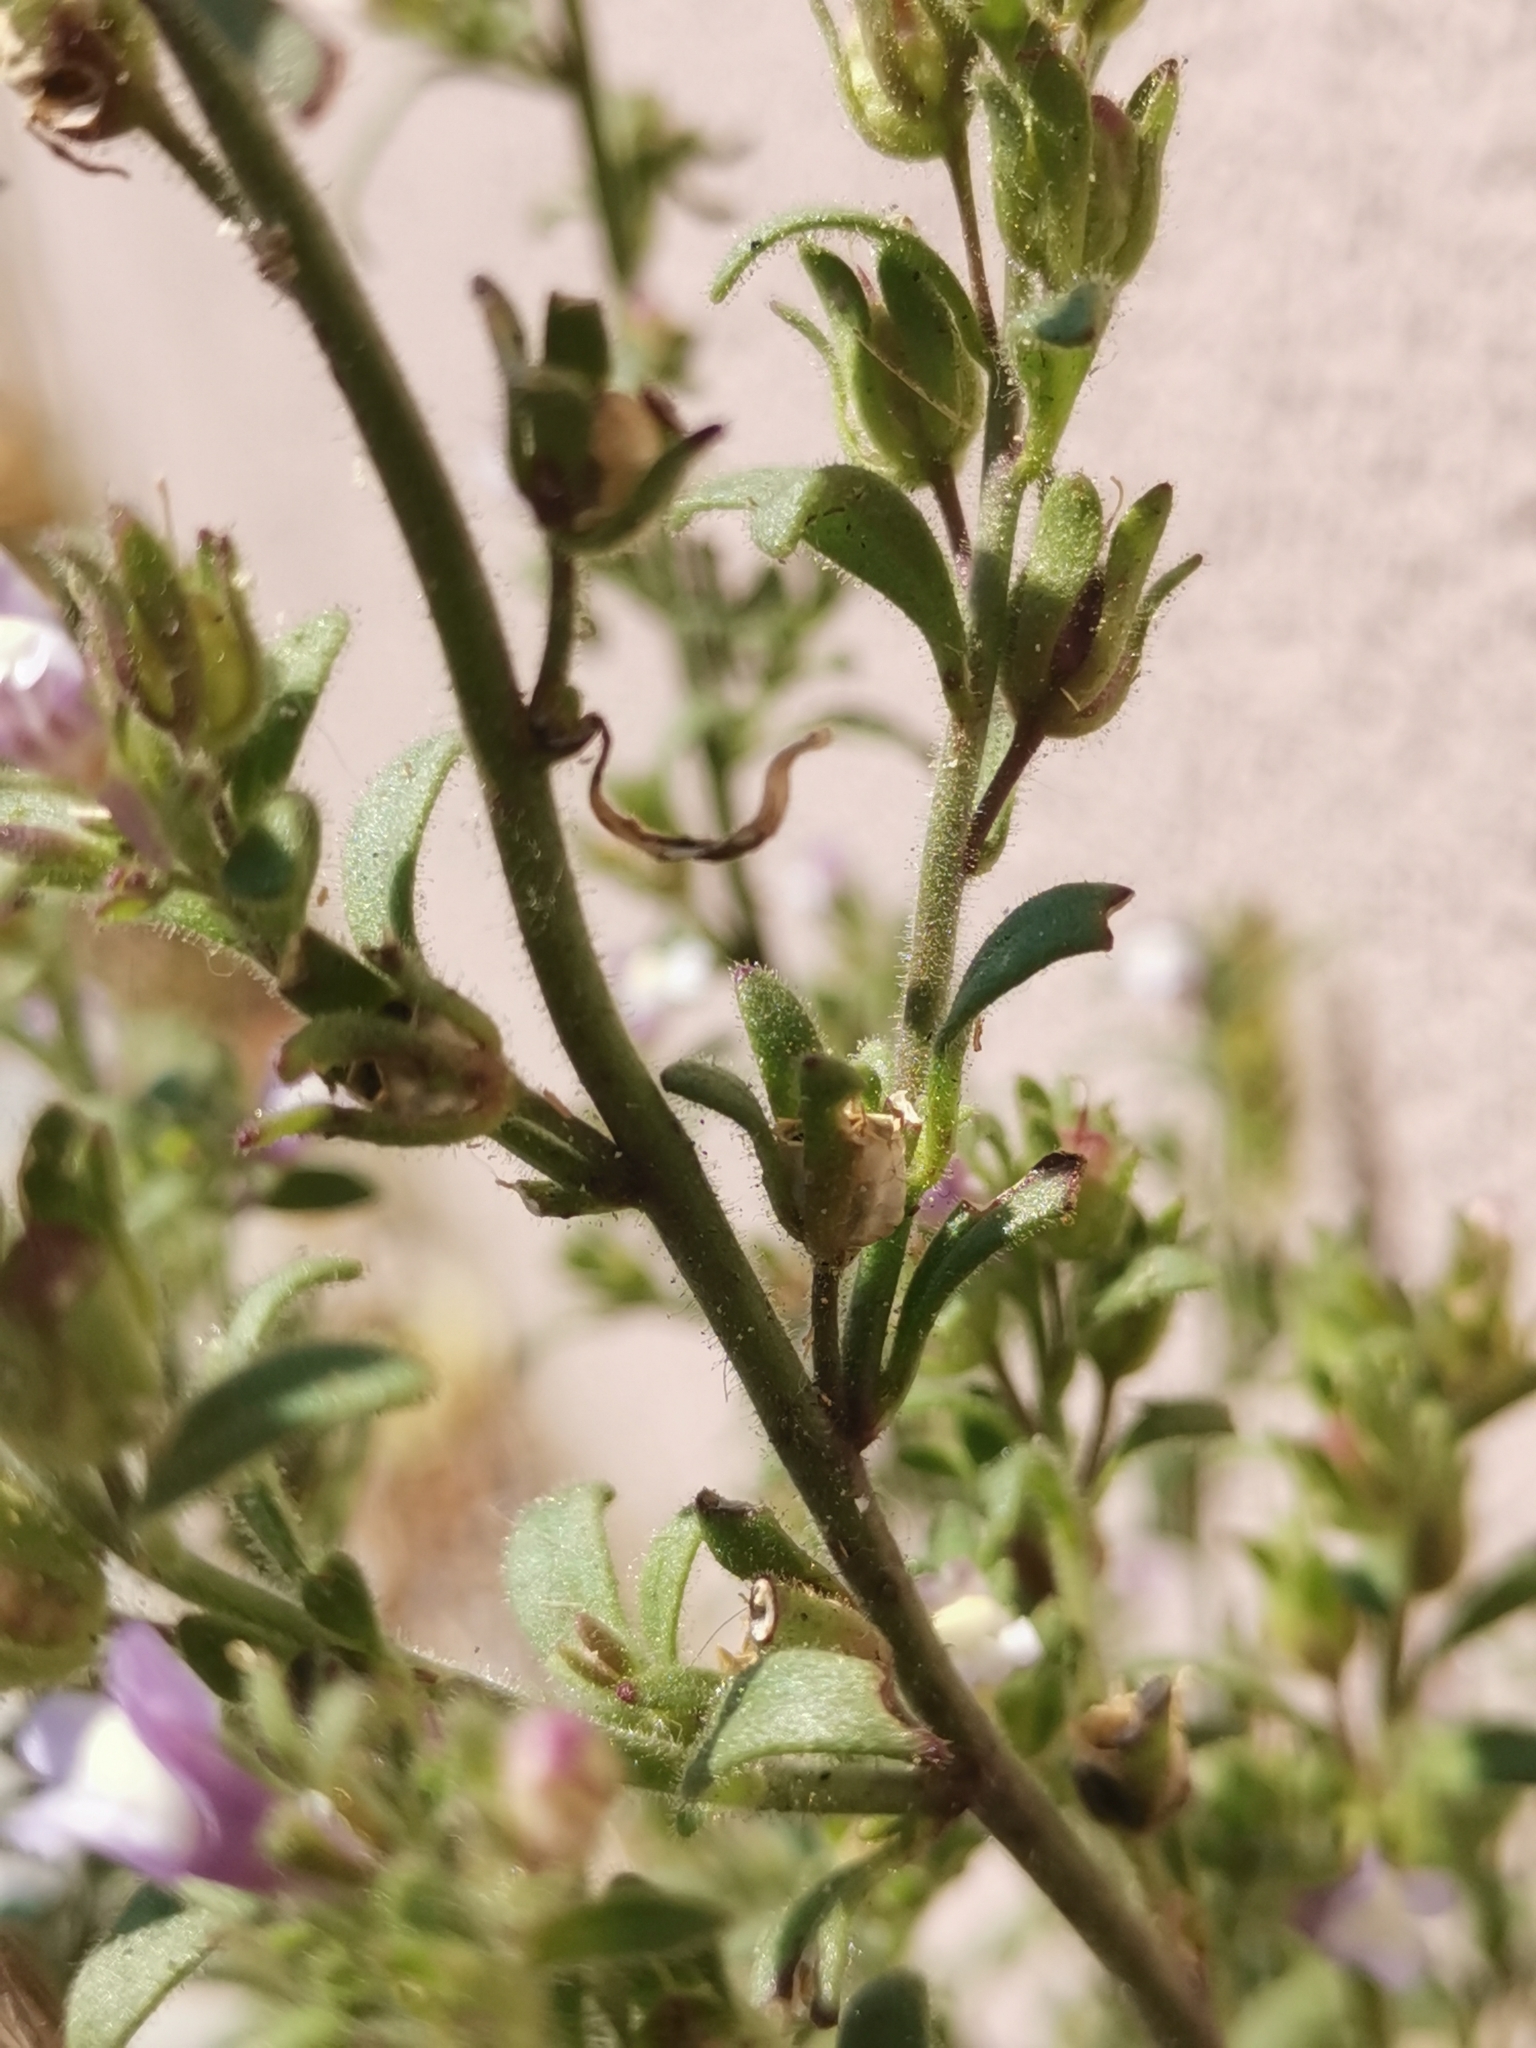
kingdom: Plantae
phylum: Tracheophyta
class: Magnoliopsida
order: Lamiales
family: Plantaginaceae
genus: Chaenorhinum
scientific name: Chaenorhinum litorale
